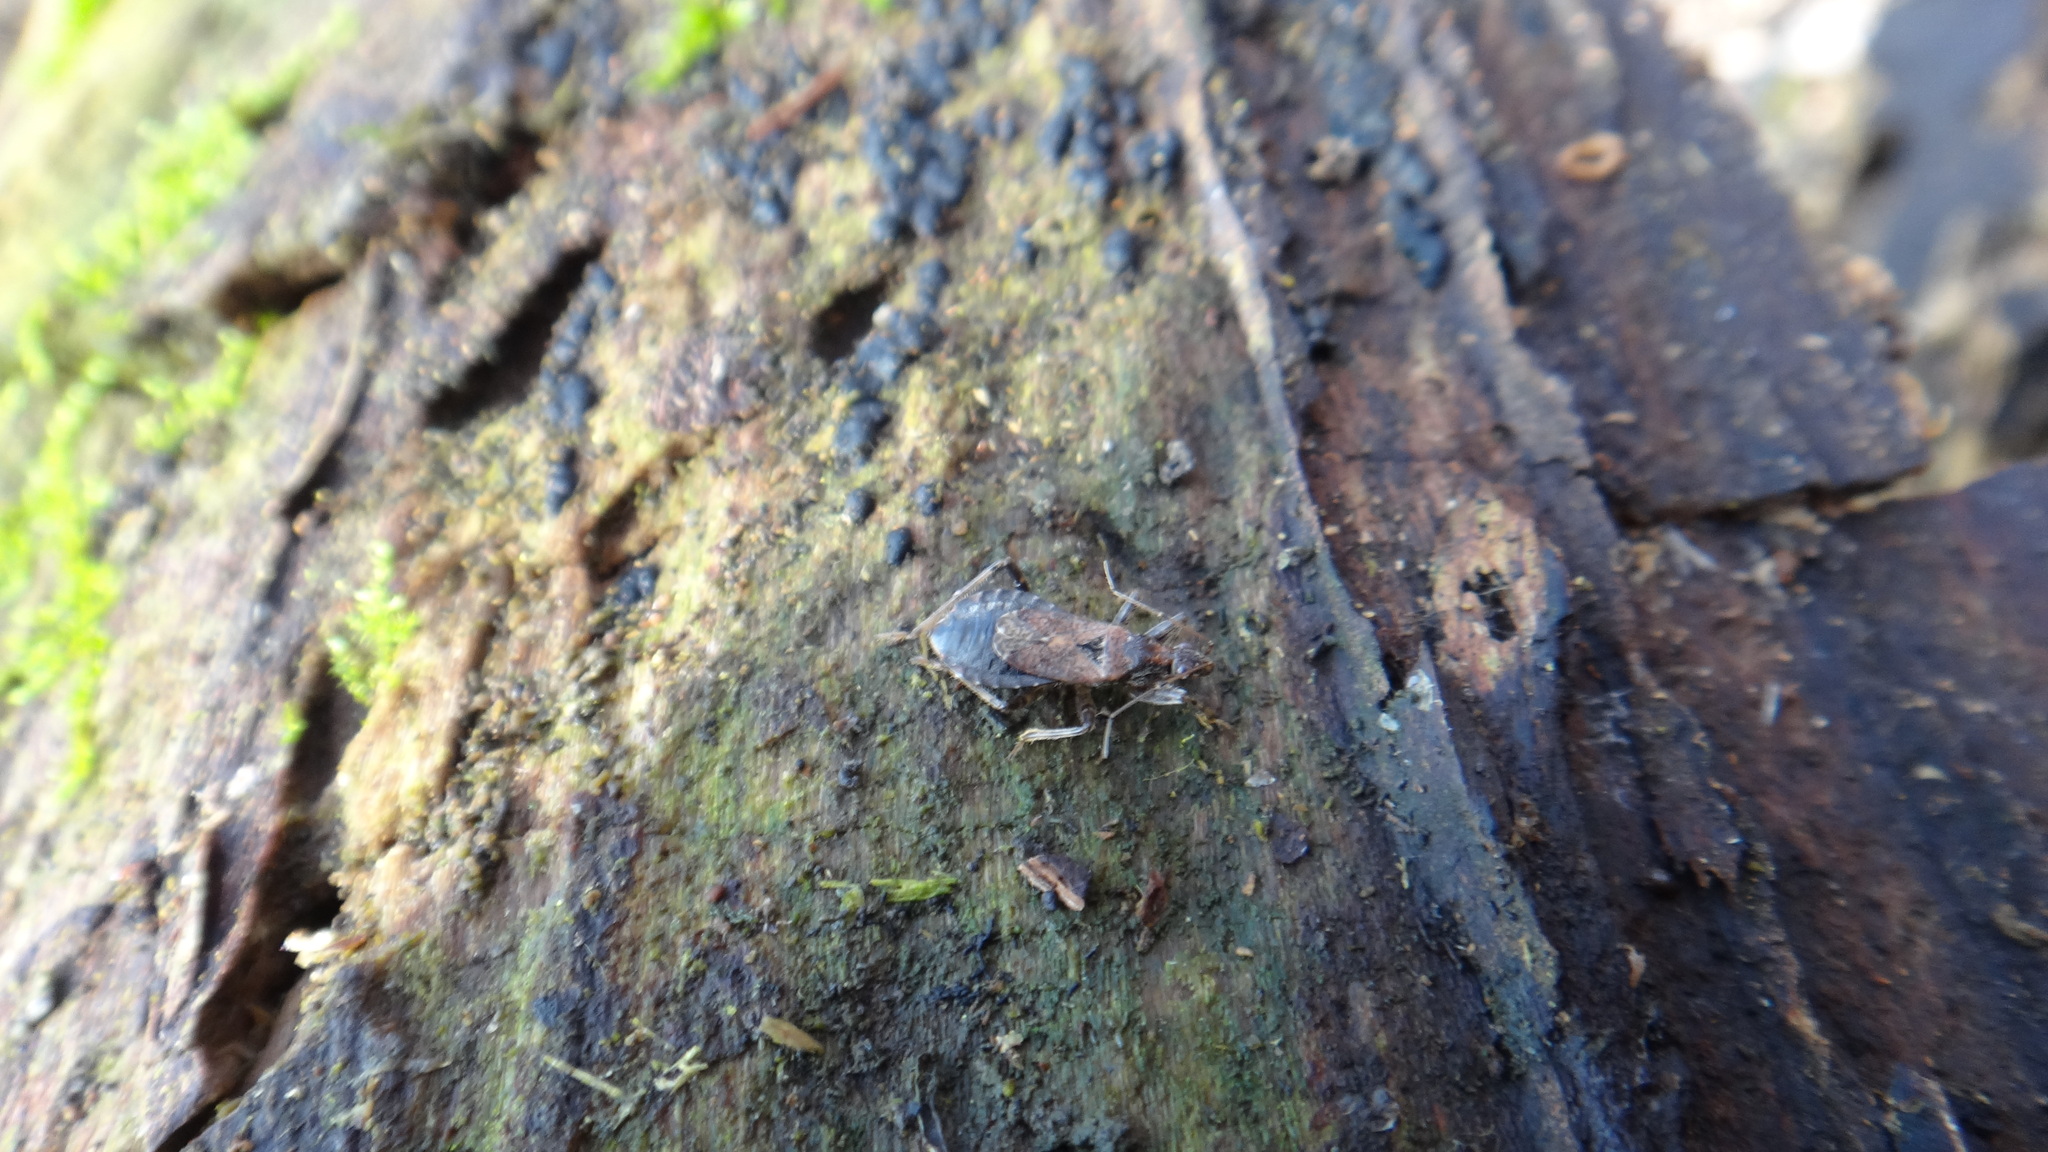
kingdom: Animalia
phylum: Arthropoda
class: Insecta
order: Hemiptera
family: Nabidae
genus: Himacerus
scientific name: Himacerus mirmicoides
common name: Ant damsel bug
